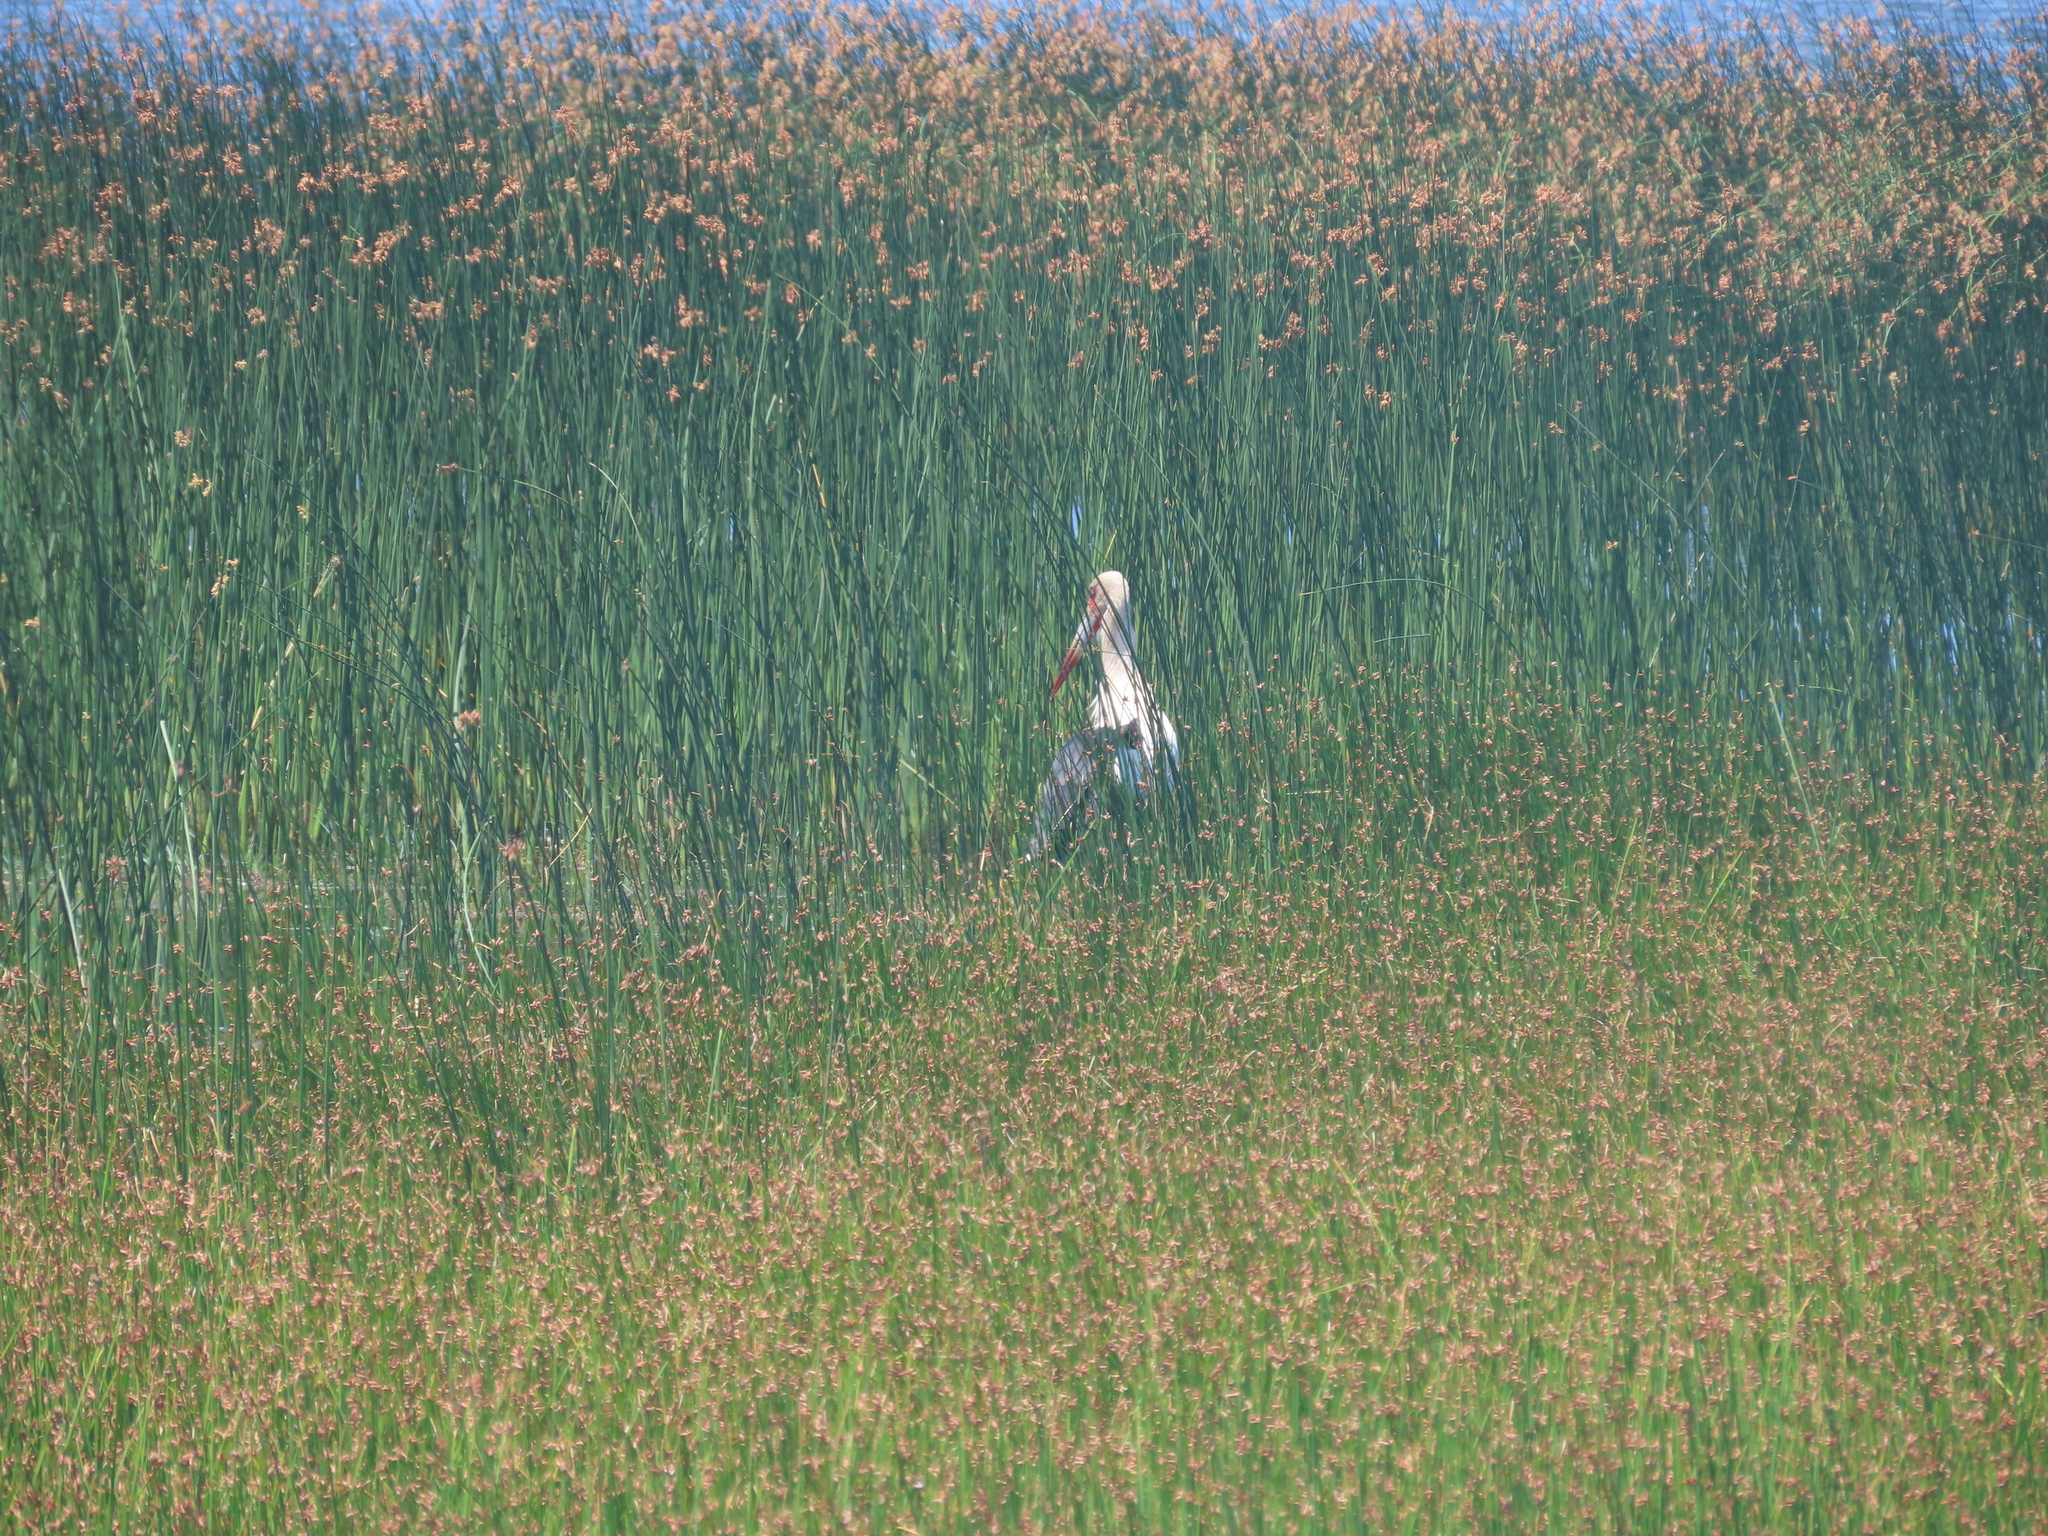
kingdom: Animalia
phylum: Chordata
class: Aves
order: Ciconiiformes
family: Ciconiidae
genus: Ciconia
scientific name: Ciconia maguari
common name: Maguari stork
